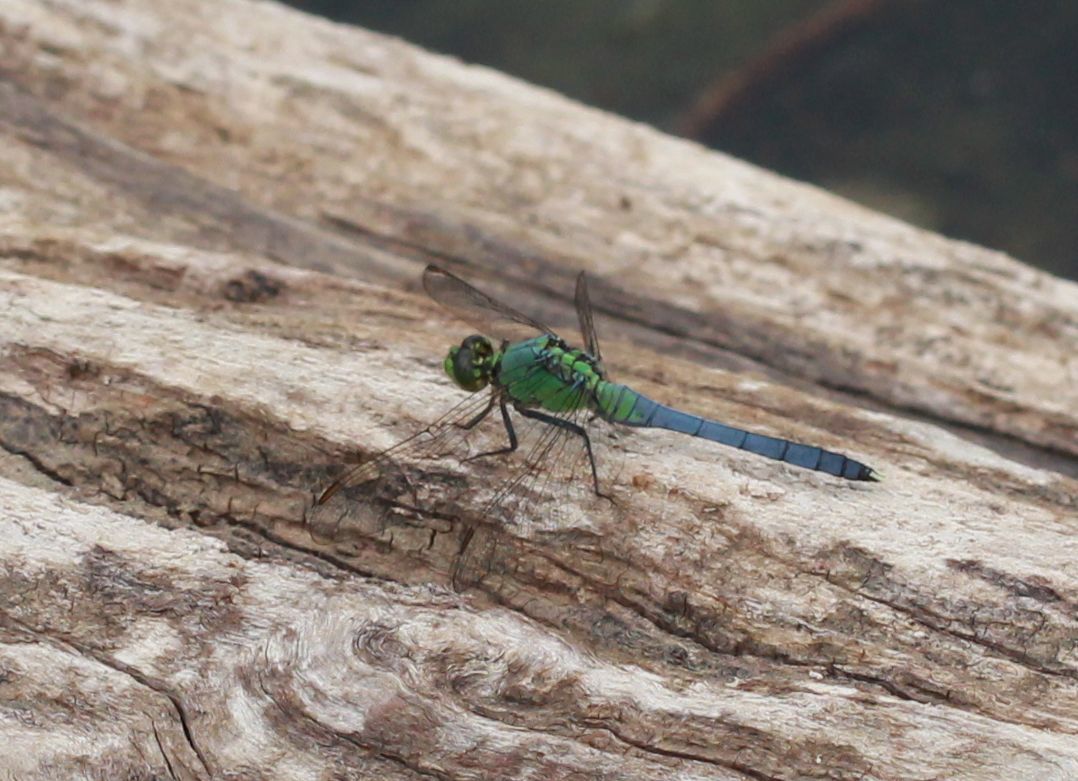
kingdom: Animalia
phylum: Arthropoda
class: Insecta
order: Odonata
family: Libellulidae
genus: Erythemis
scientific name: Erythemis simplicicollis
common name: Eastern pondhawk
